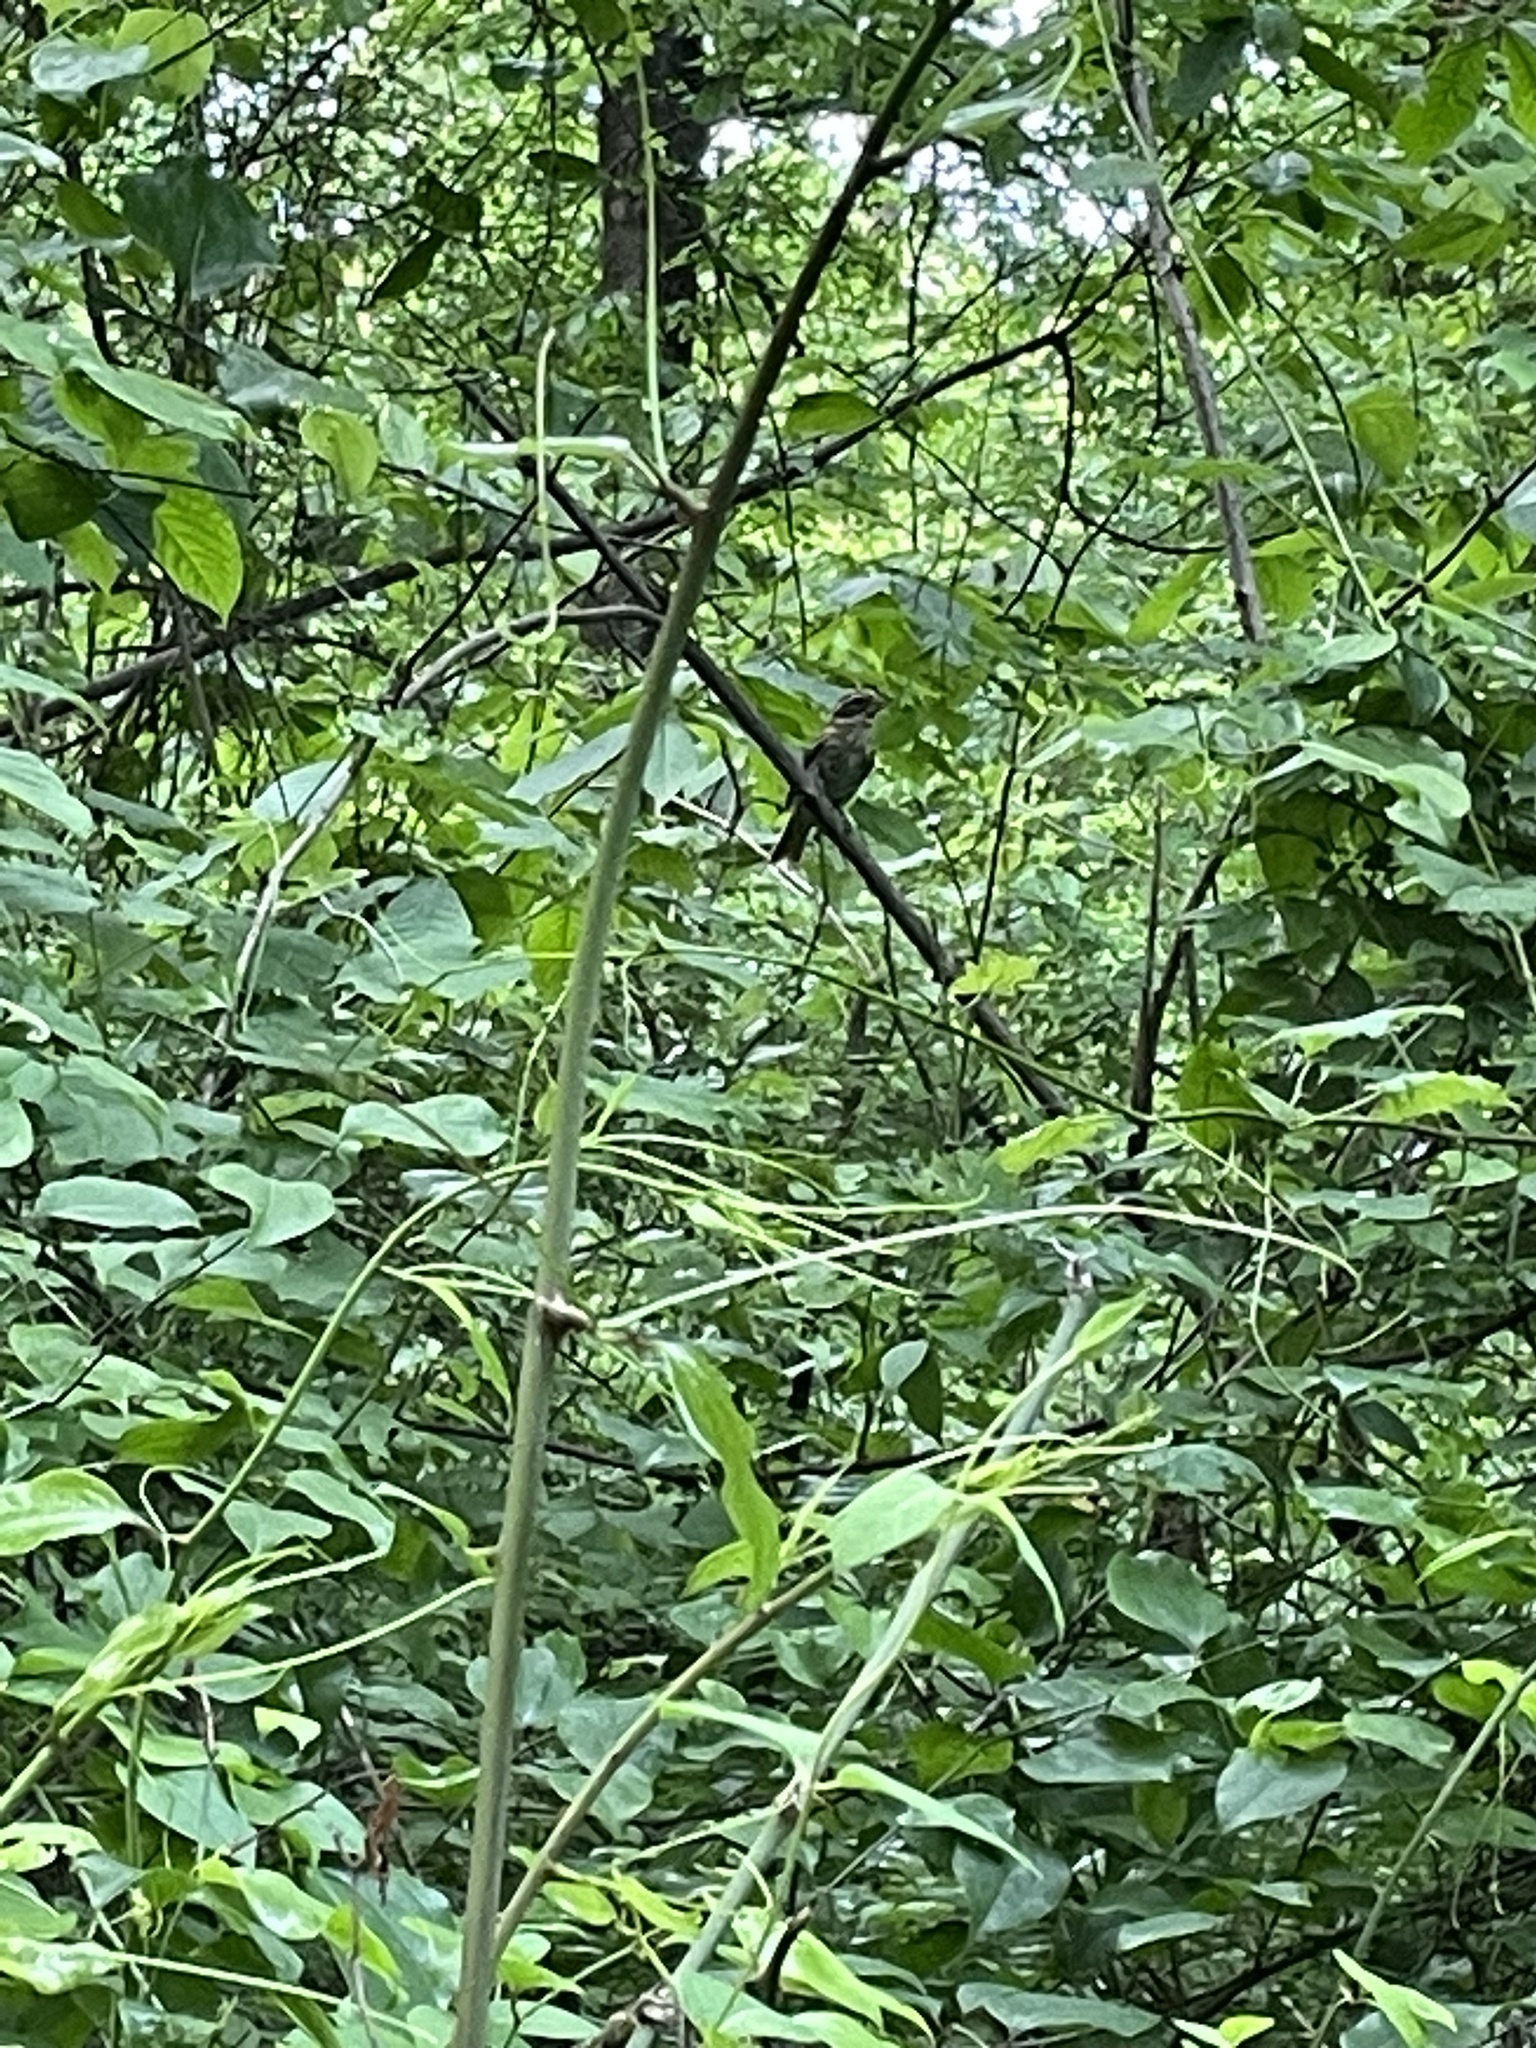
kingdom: Animalia
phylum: Chordata
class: Aves
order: Passeriformes
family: Cardinalidae
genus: Pheucticus
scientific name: Pheucticus ludovicianus
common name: Rose-breasted grosbeak
